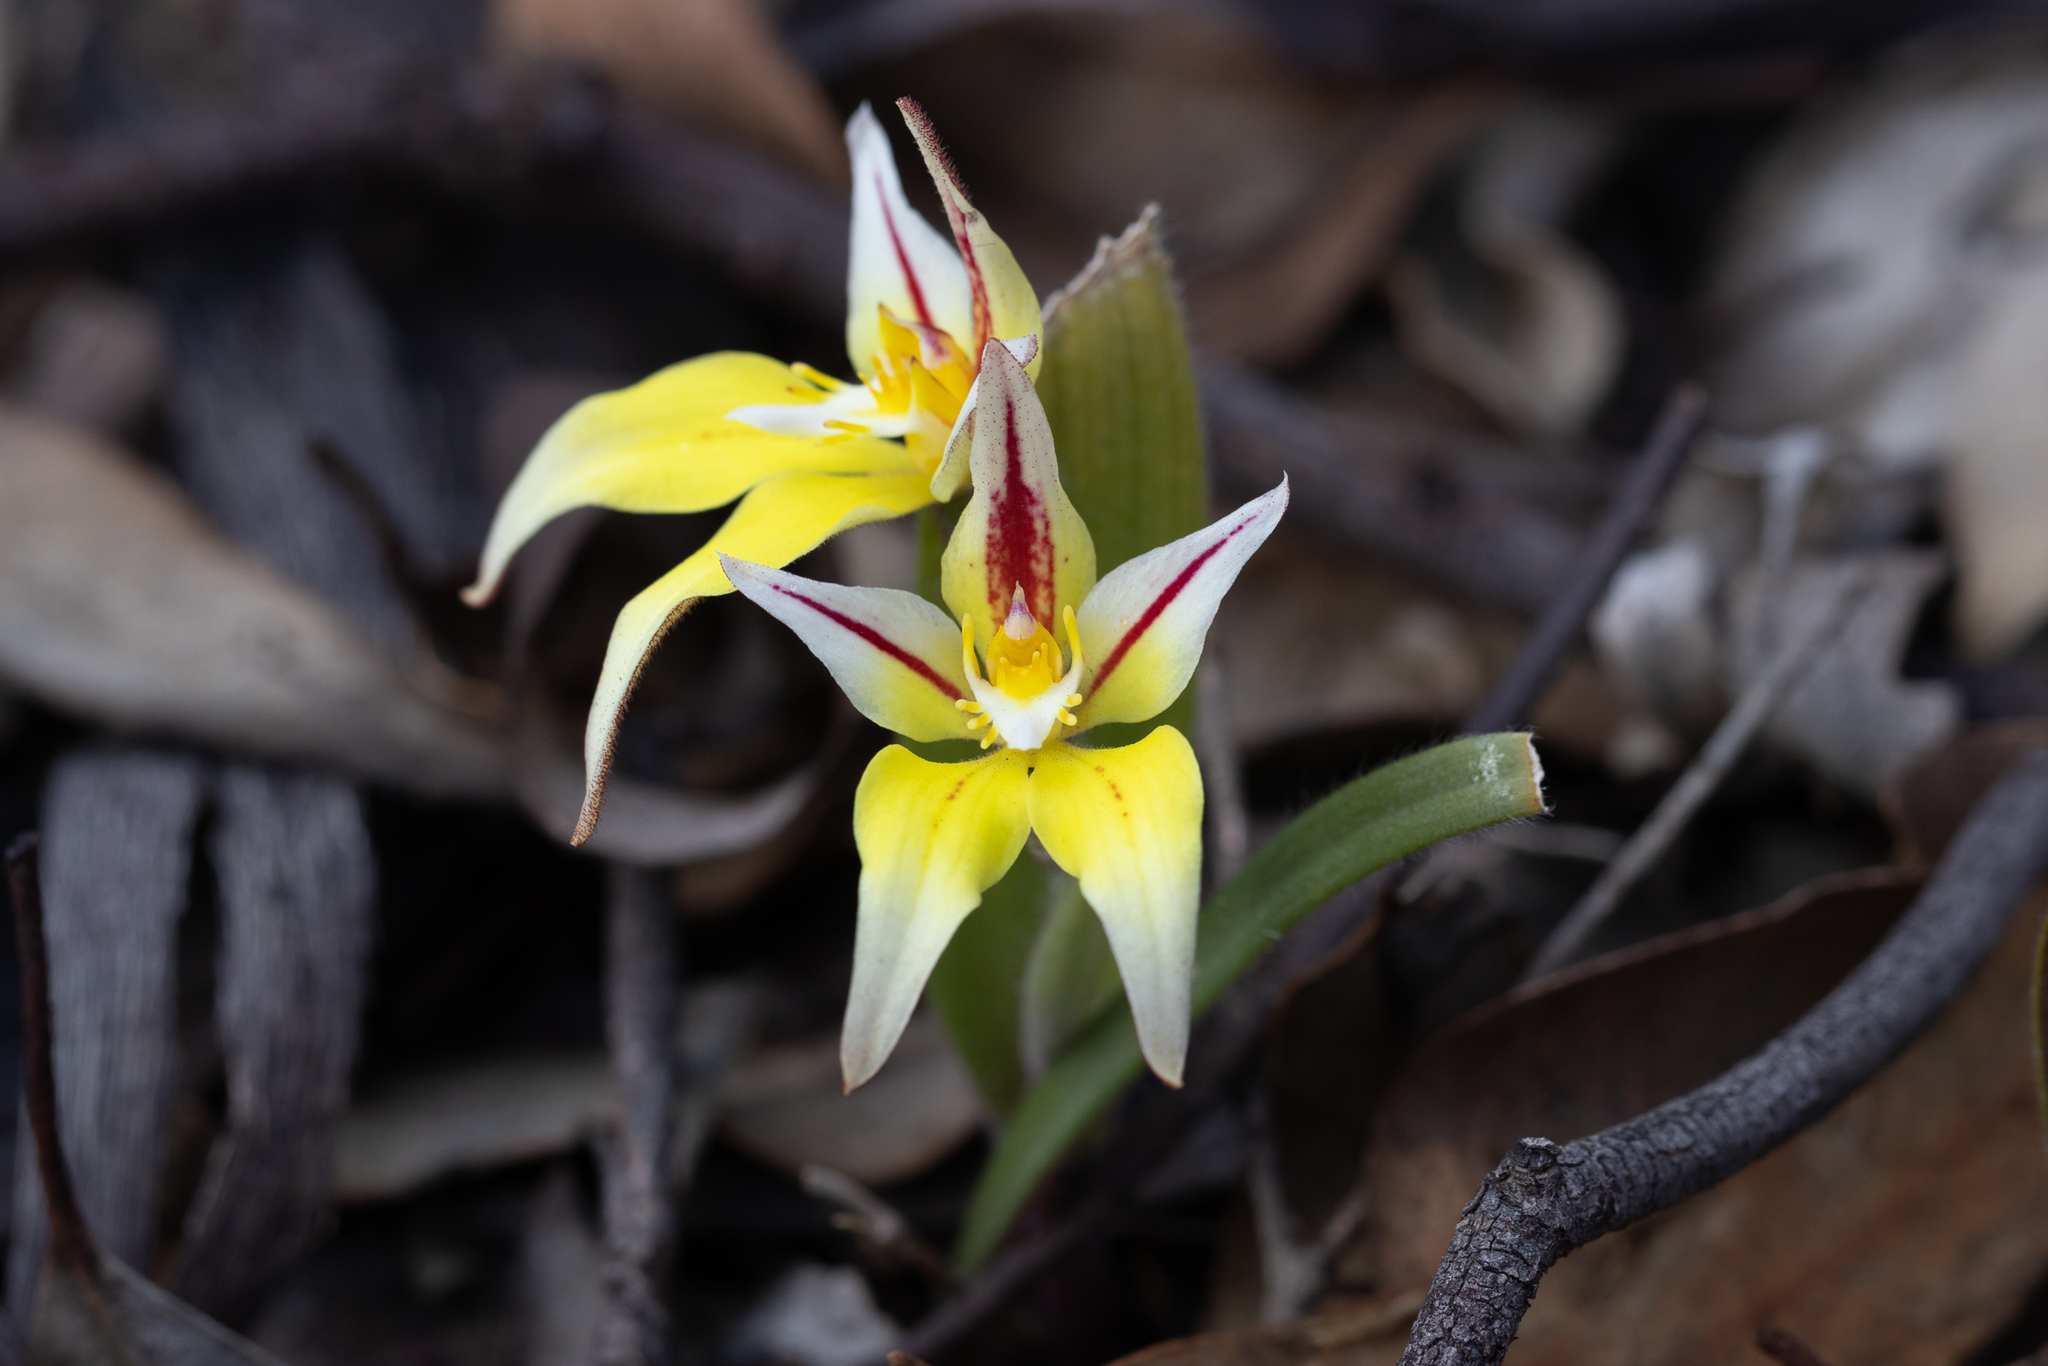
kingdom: Plantae
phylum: Tracheophyta
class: Liliopsida
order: Asparagales
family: Orchidaceae
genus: Caladenia
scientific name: Caladenia flava
